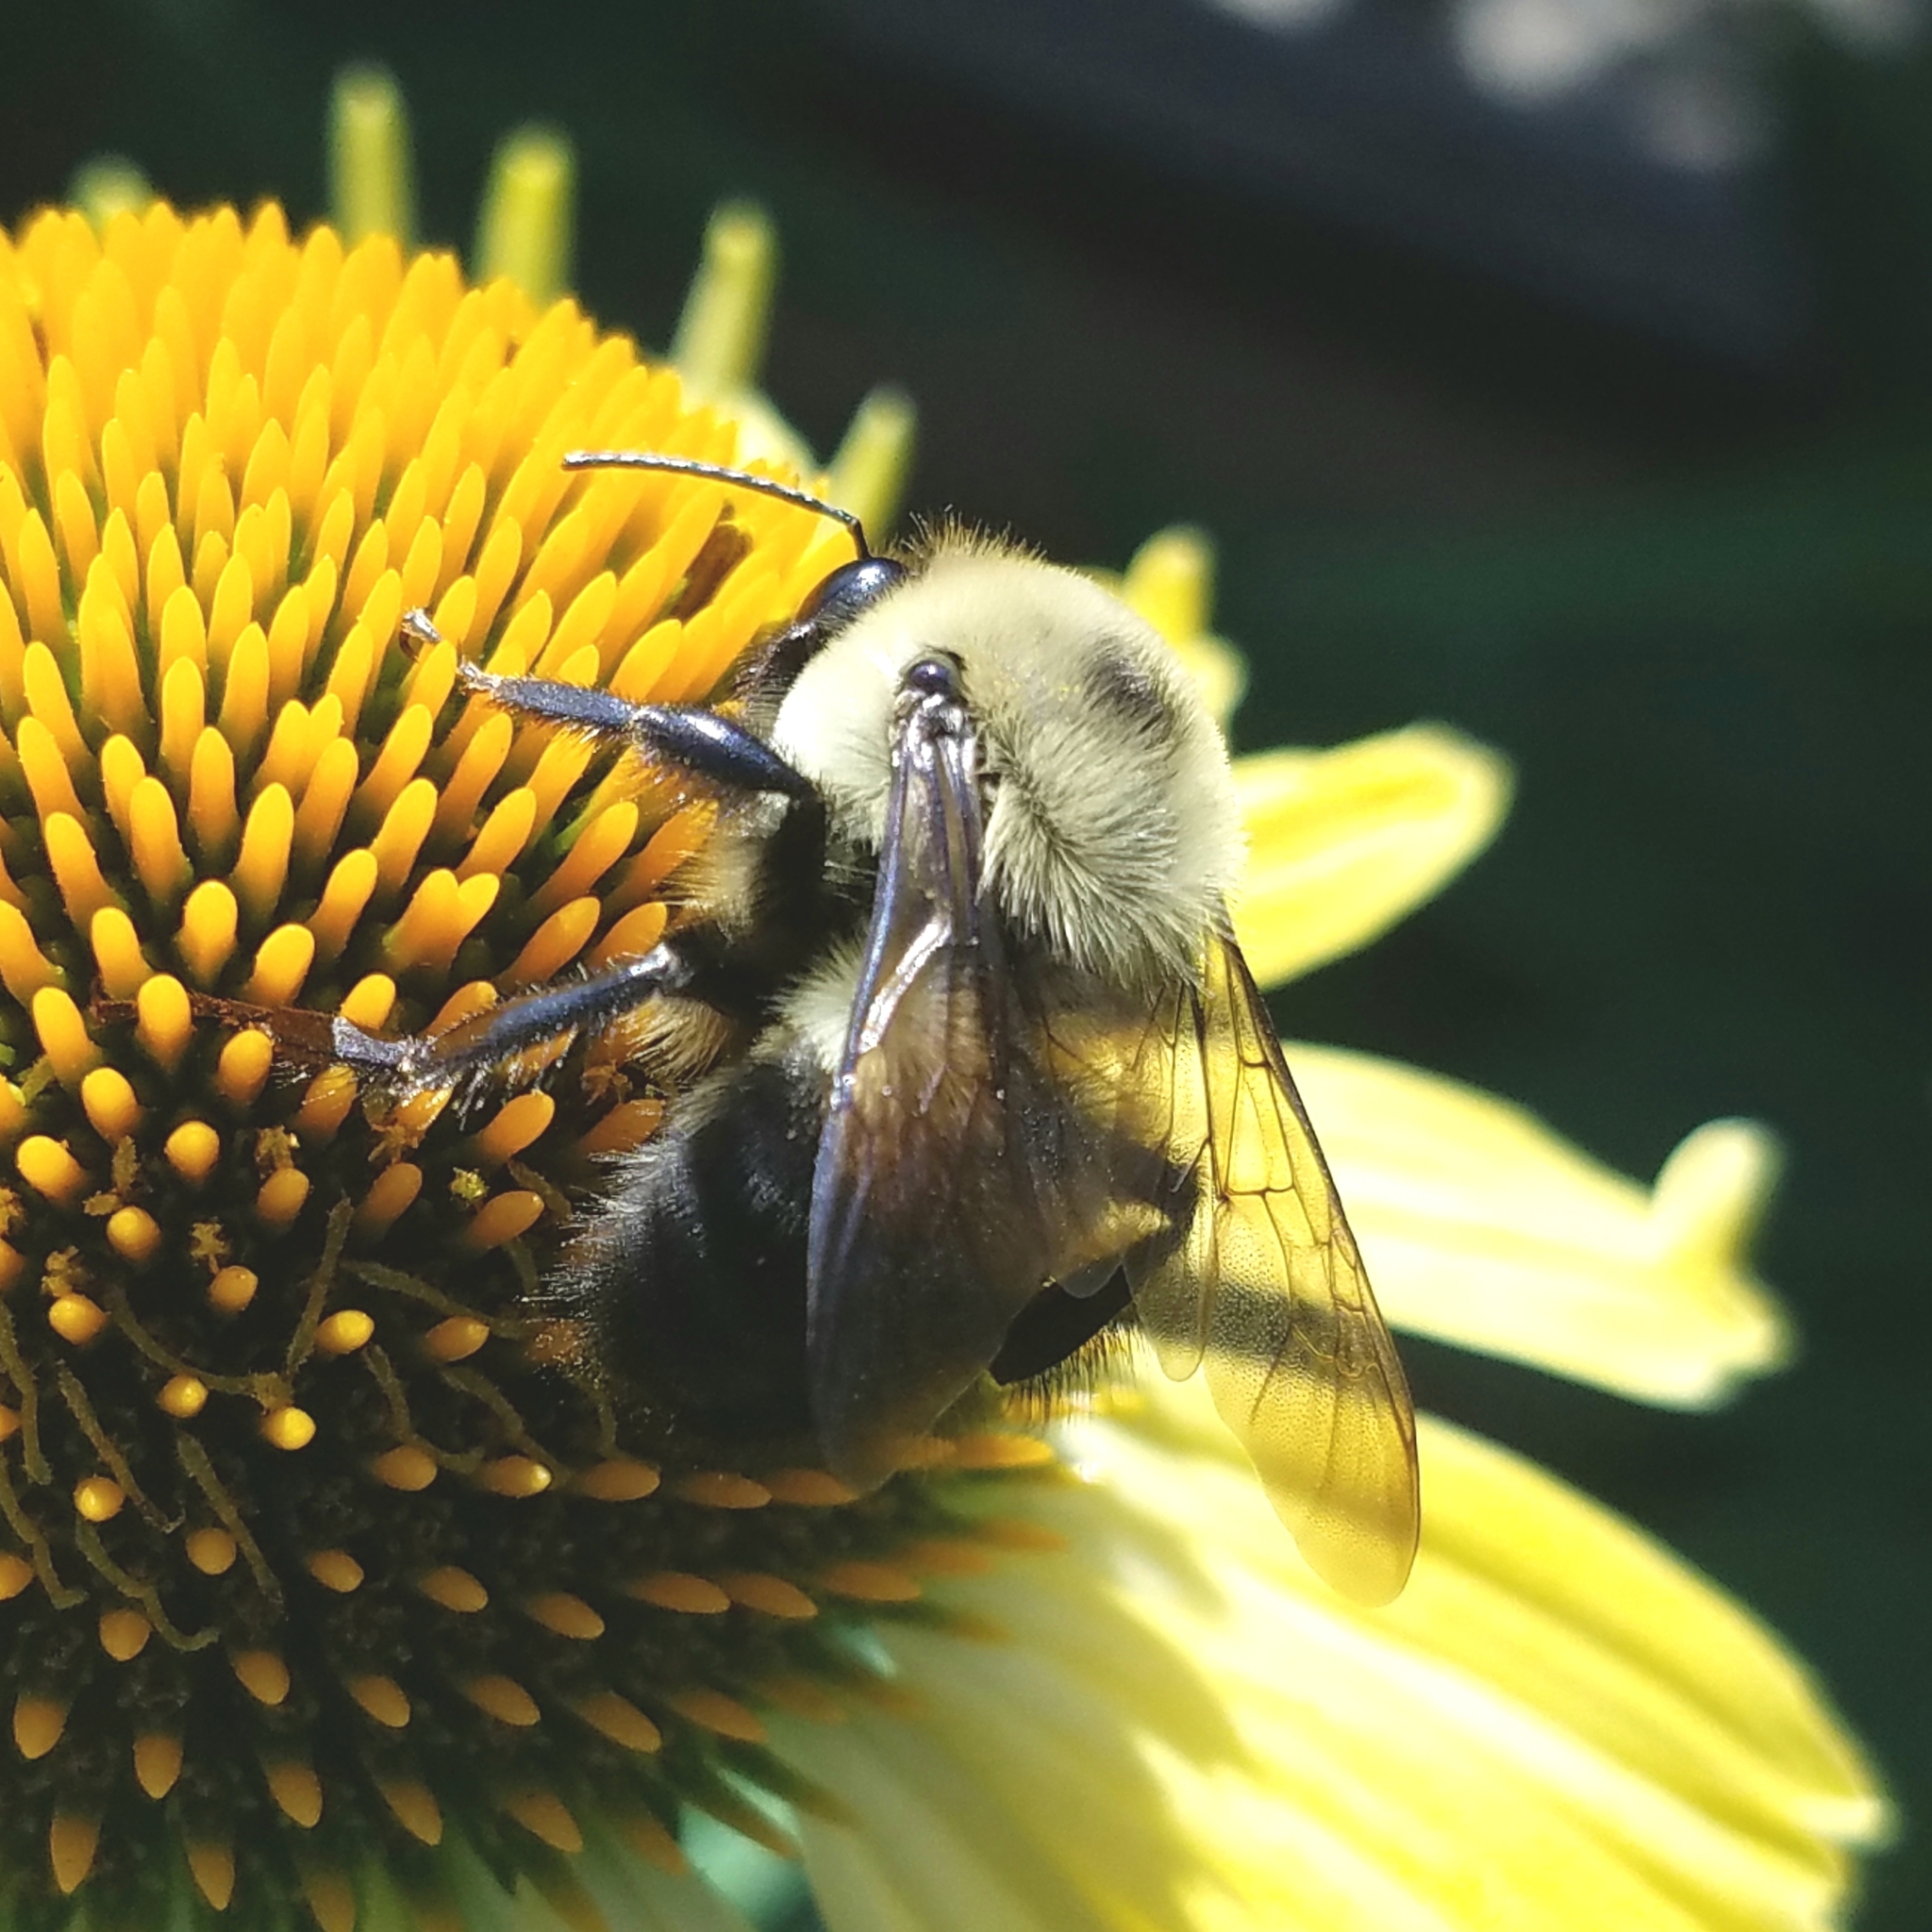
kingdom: Animalia
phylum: Arthropoda
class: Insecta
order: Hymenoptera
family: Apidae
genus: Bombus
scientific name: Bombus griseocollis
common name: Brown-belted bumble bee
